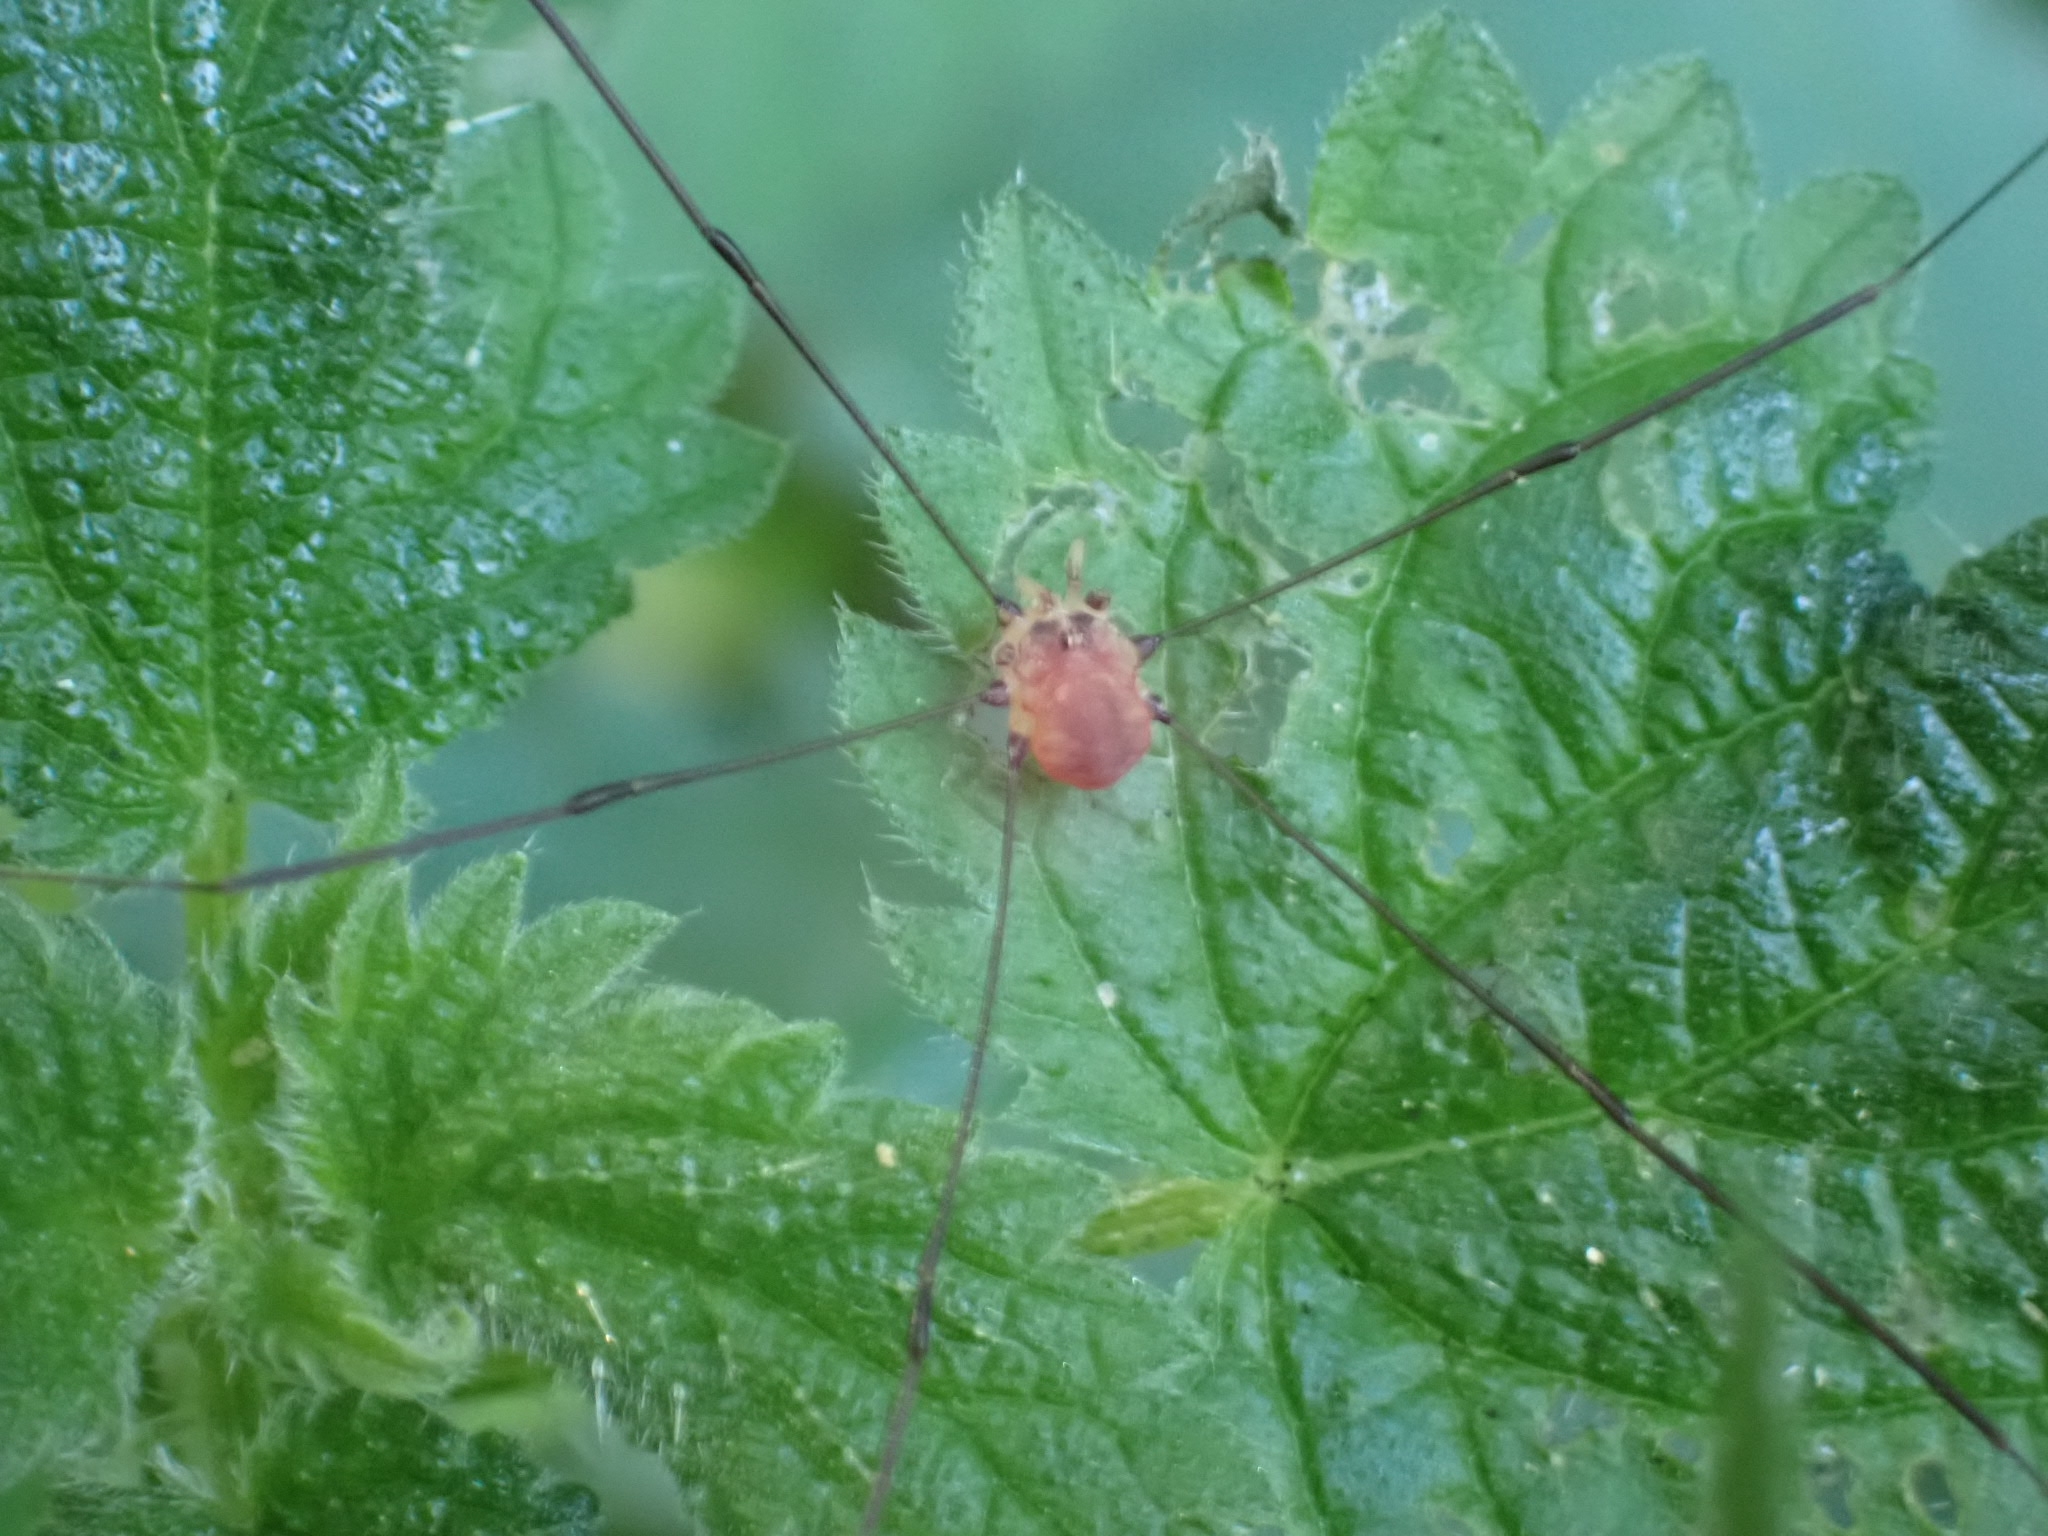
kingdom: Animalia
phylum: Arthropoda
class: Arachnida
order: Opiliones
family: Sclerosomatidae
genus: Leiobunum
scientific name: Leiobunum blackwalli
